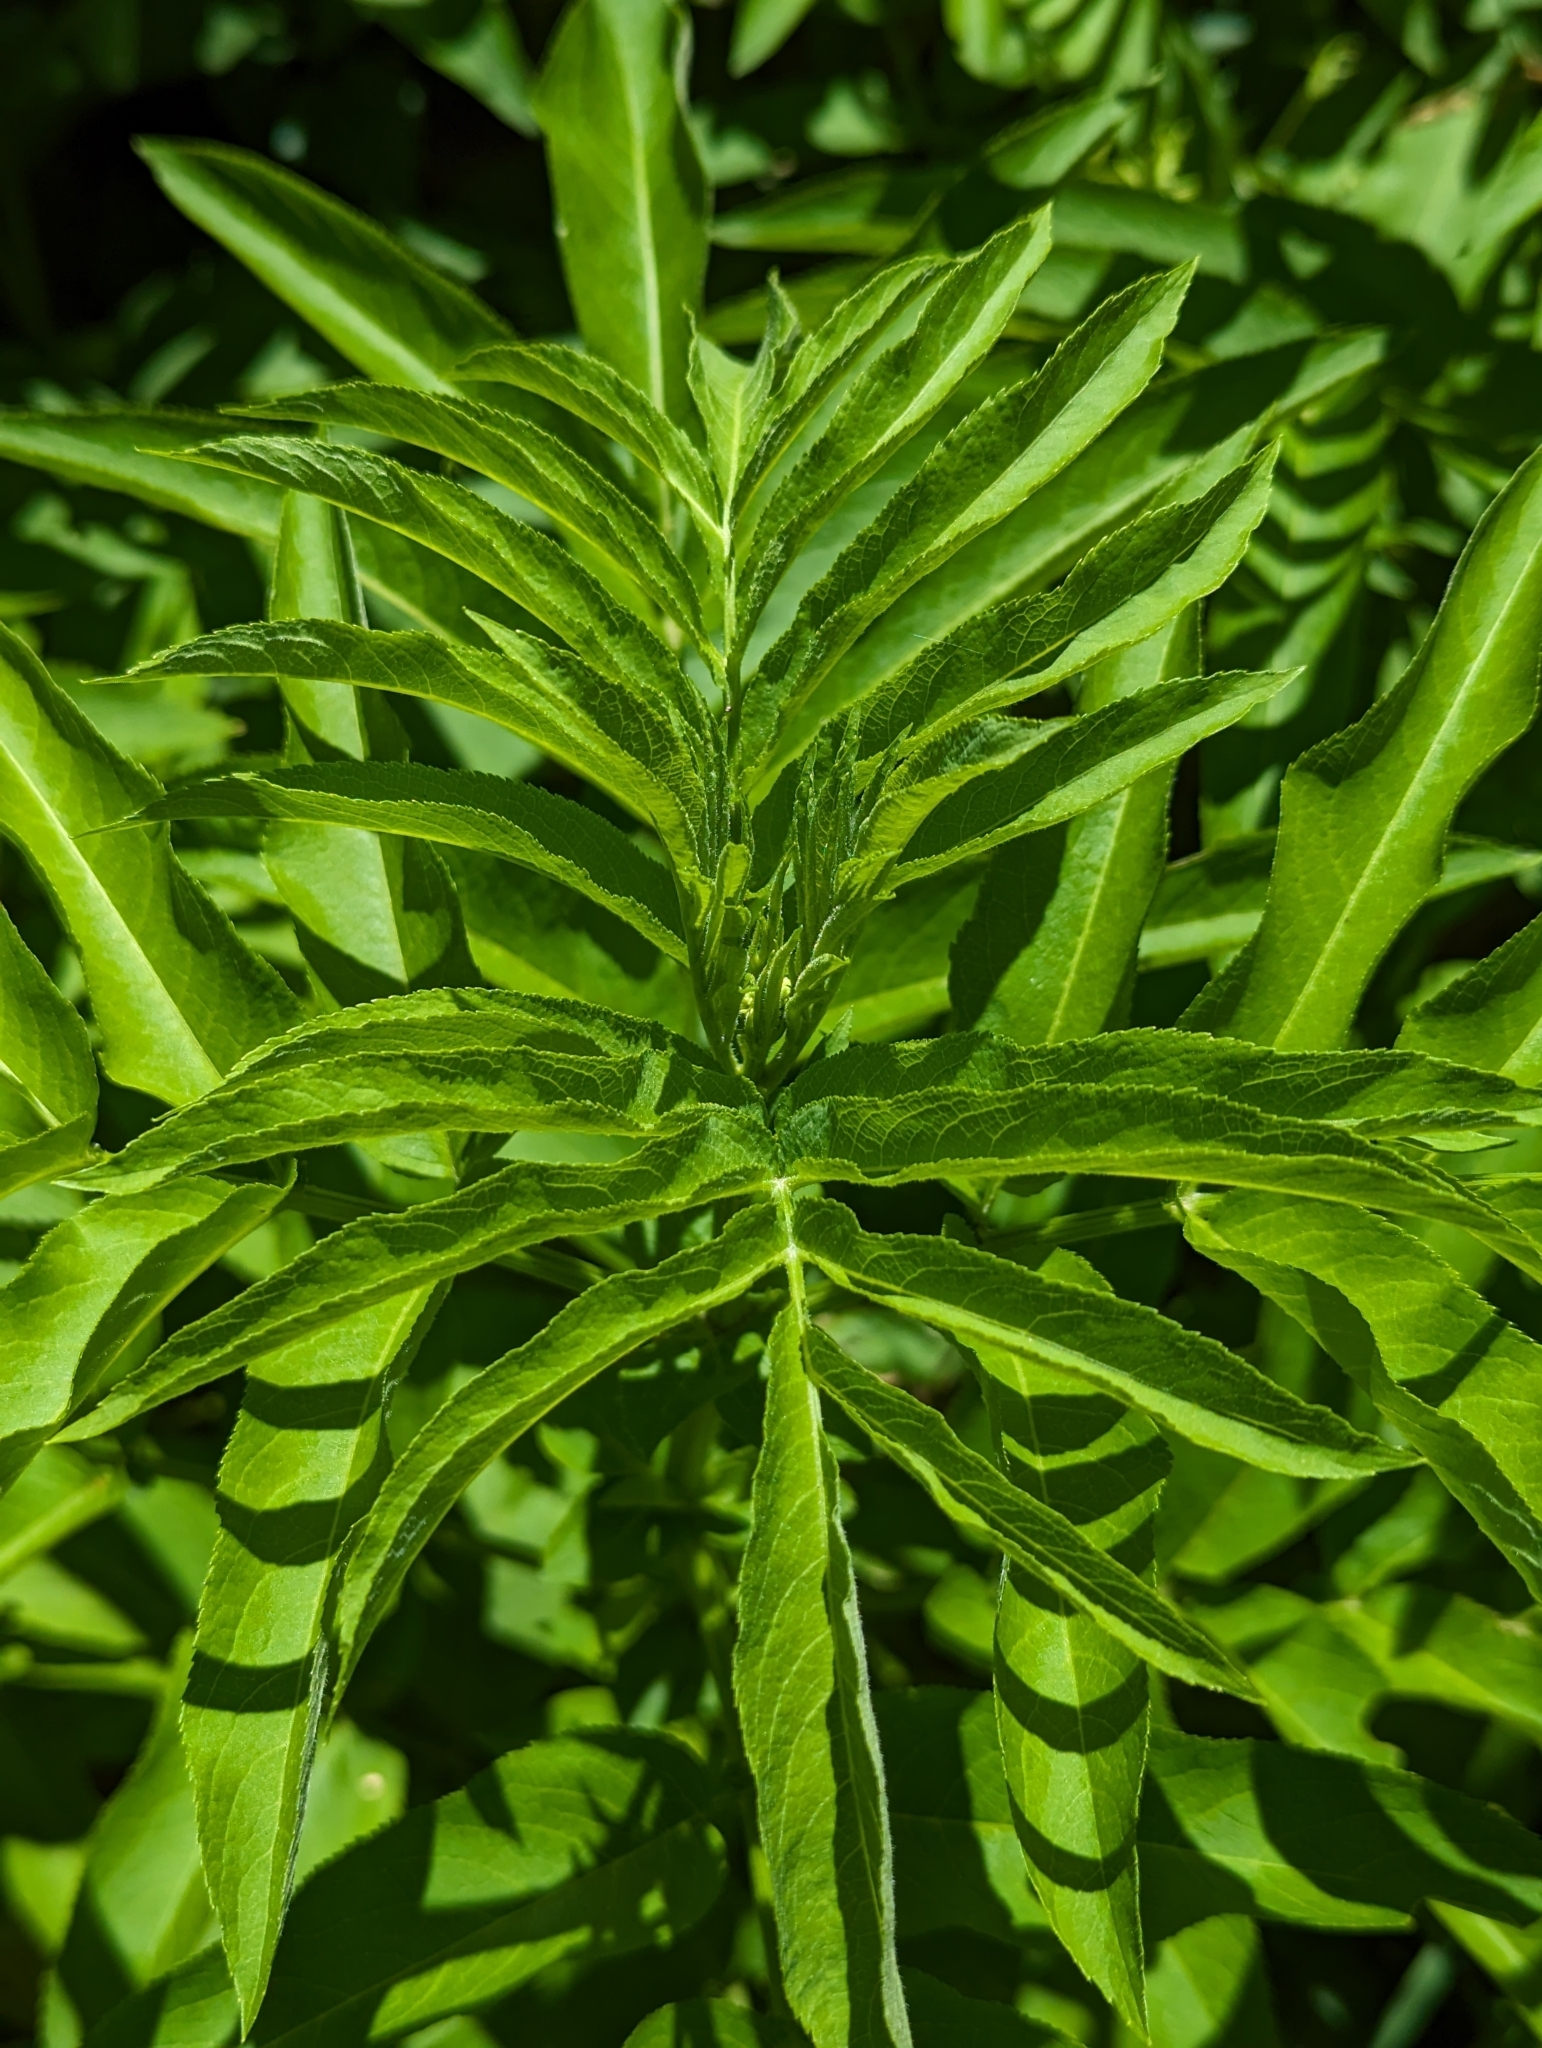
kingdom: Plantae
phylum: Tracheophyta
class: Magnoliopsida
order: Dipsacales
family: Viburnaceae
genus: Sambucus
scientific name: Sambucus ebulus
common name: Dwarf elder
